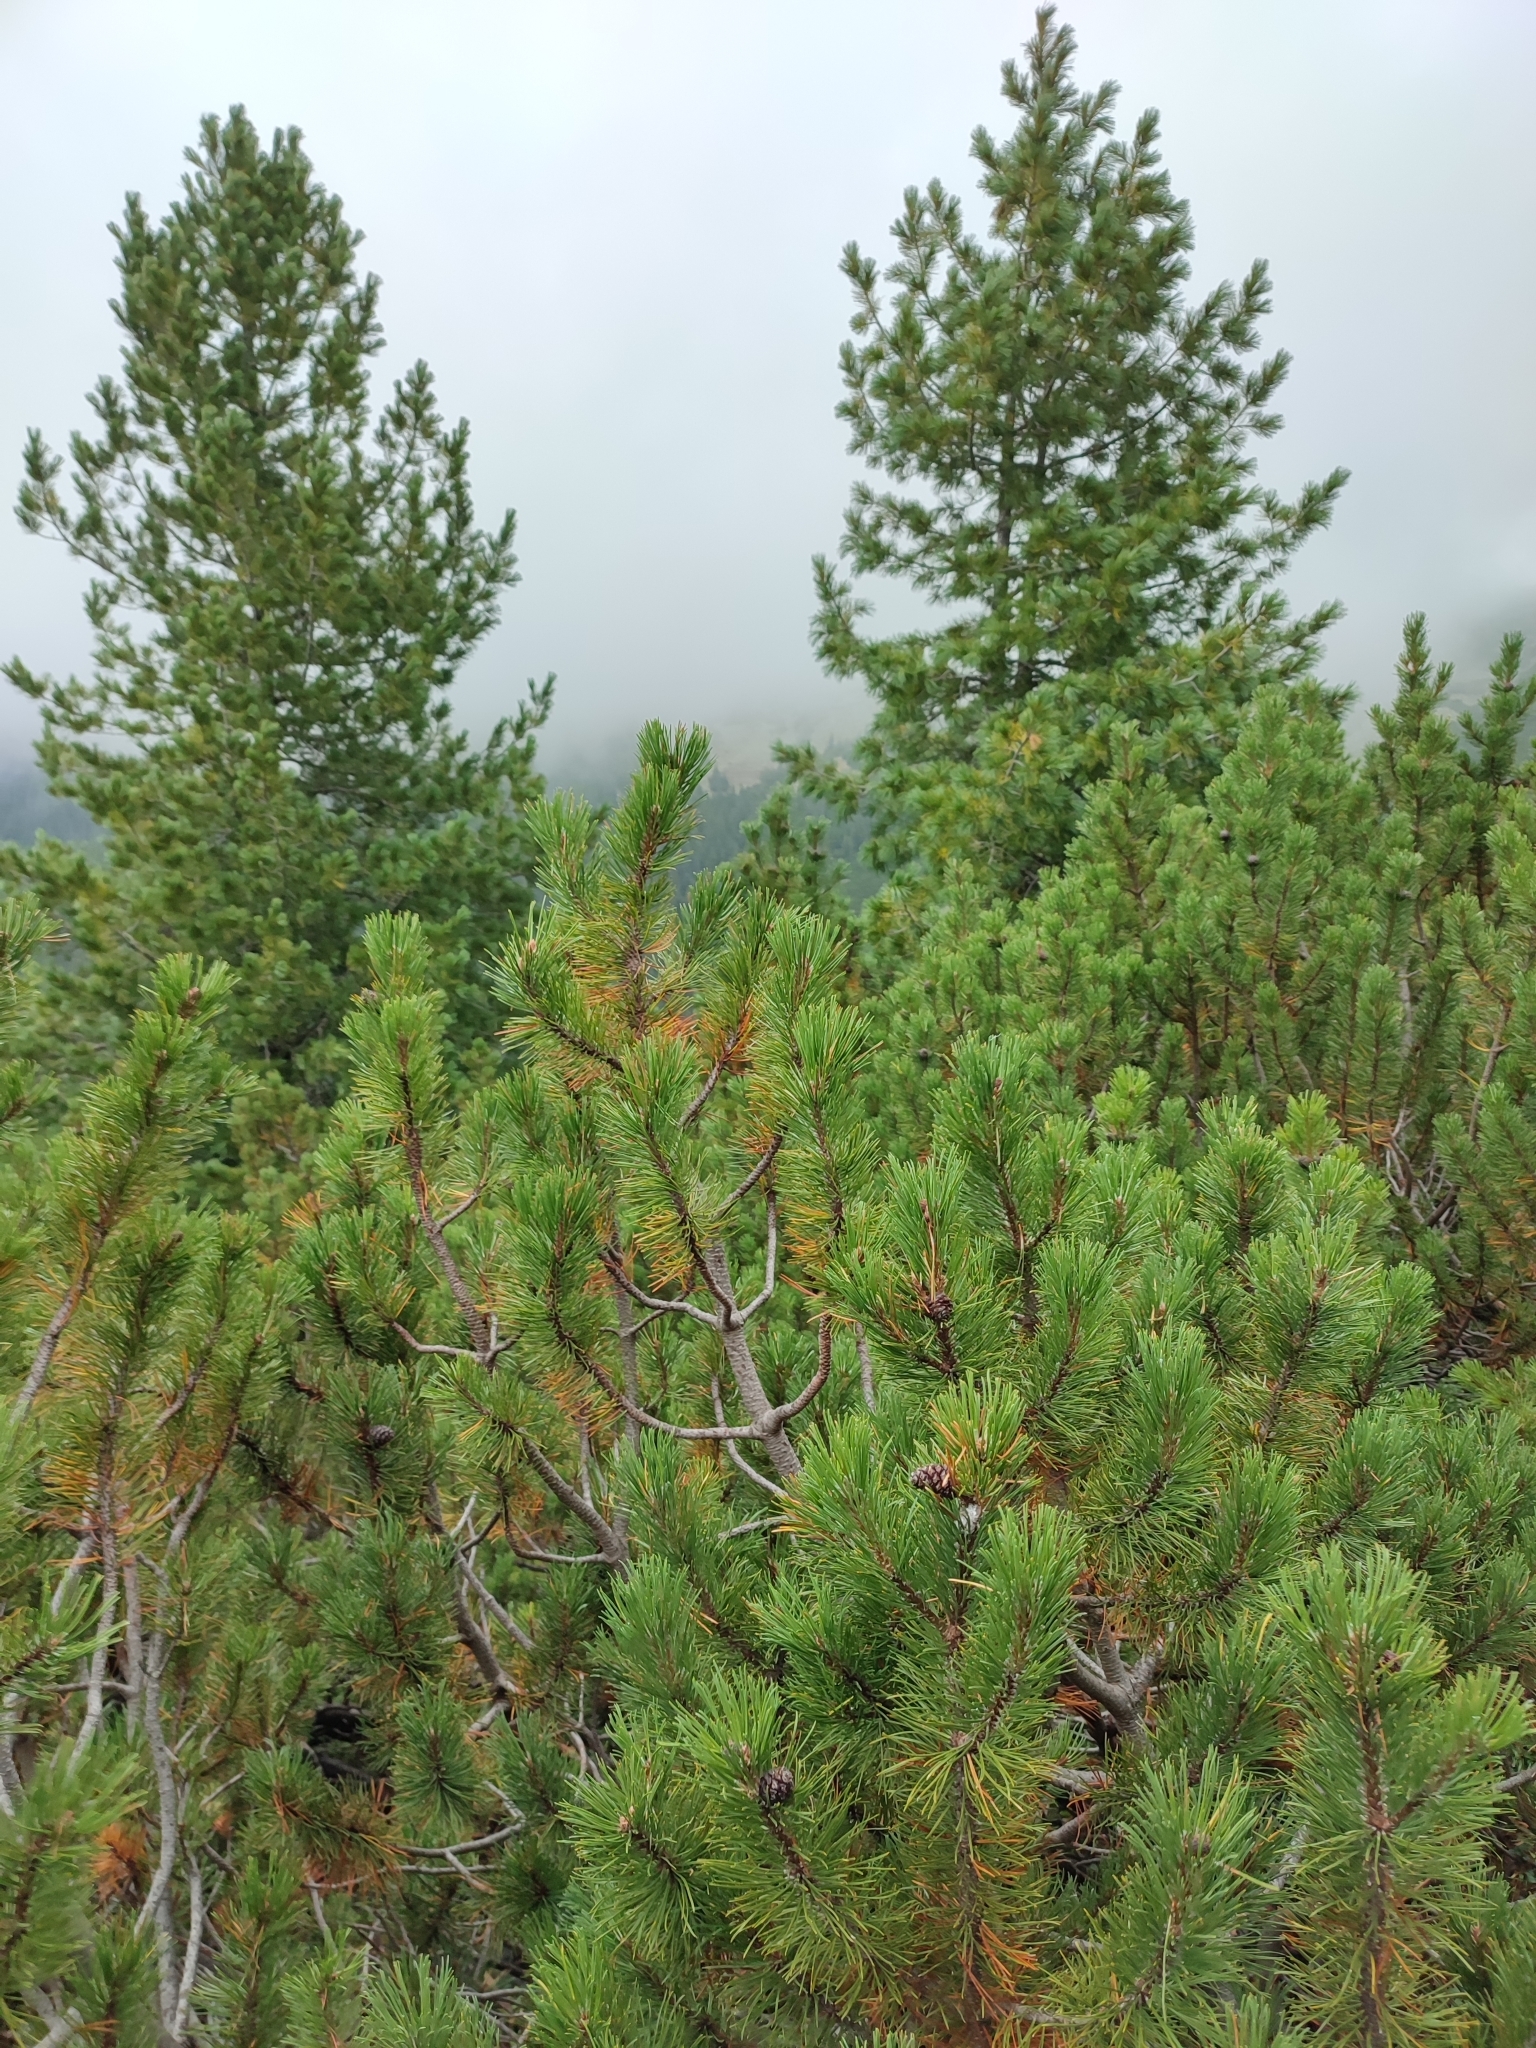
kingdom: Plantae
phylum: Tracheophyta
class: Pinopsida
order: Pinales
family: Pinaceae
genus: Pinus
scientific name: Pinus mugo
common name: Mugo pine
